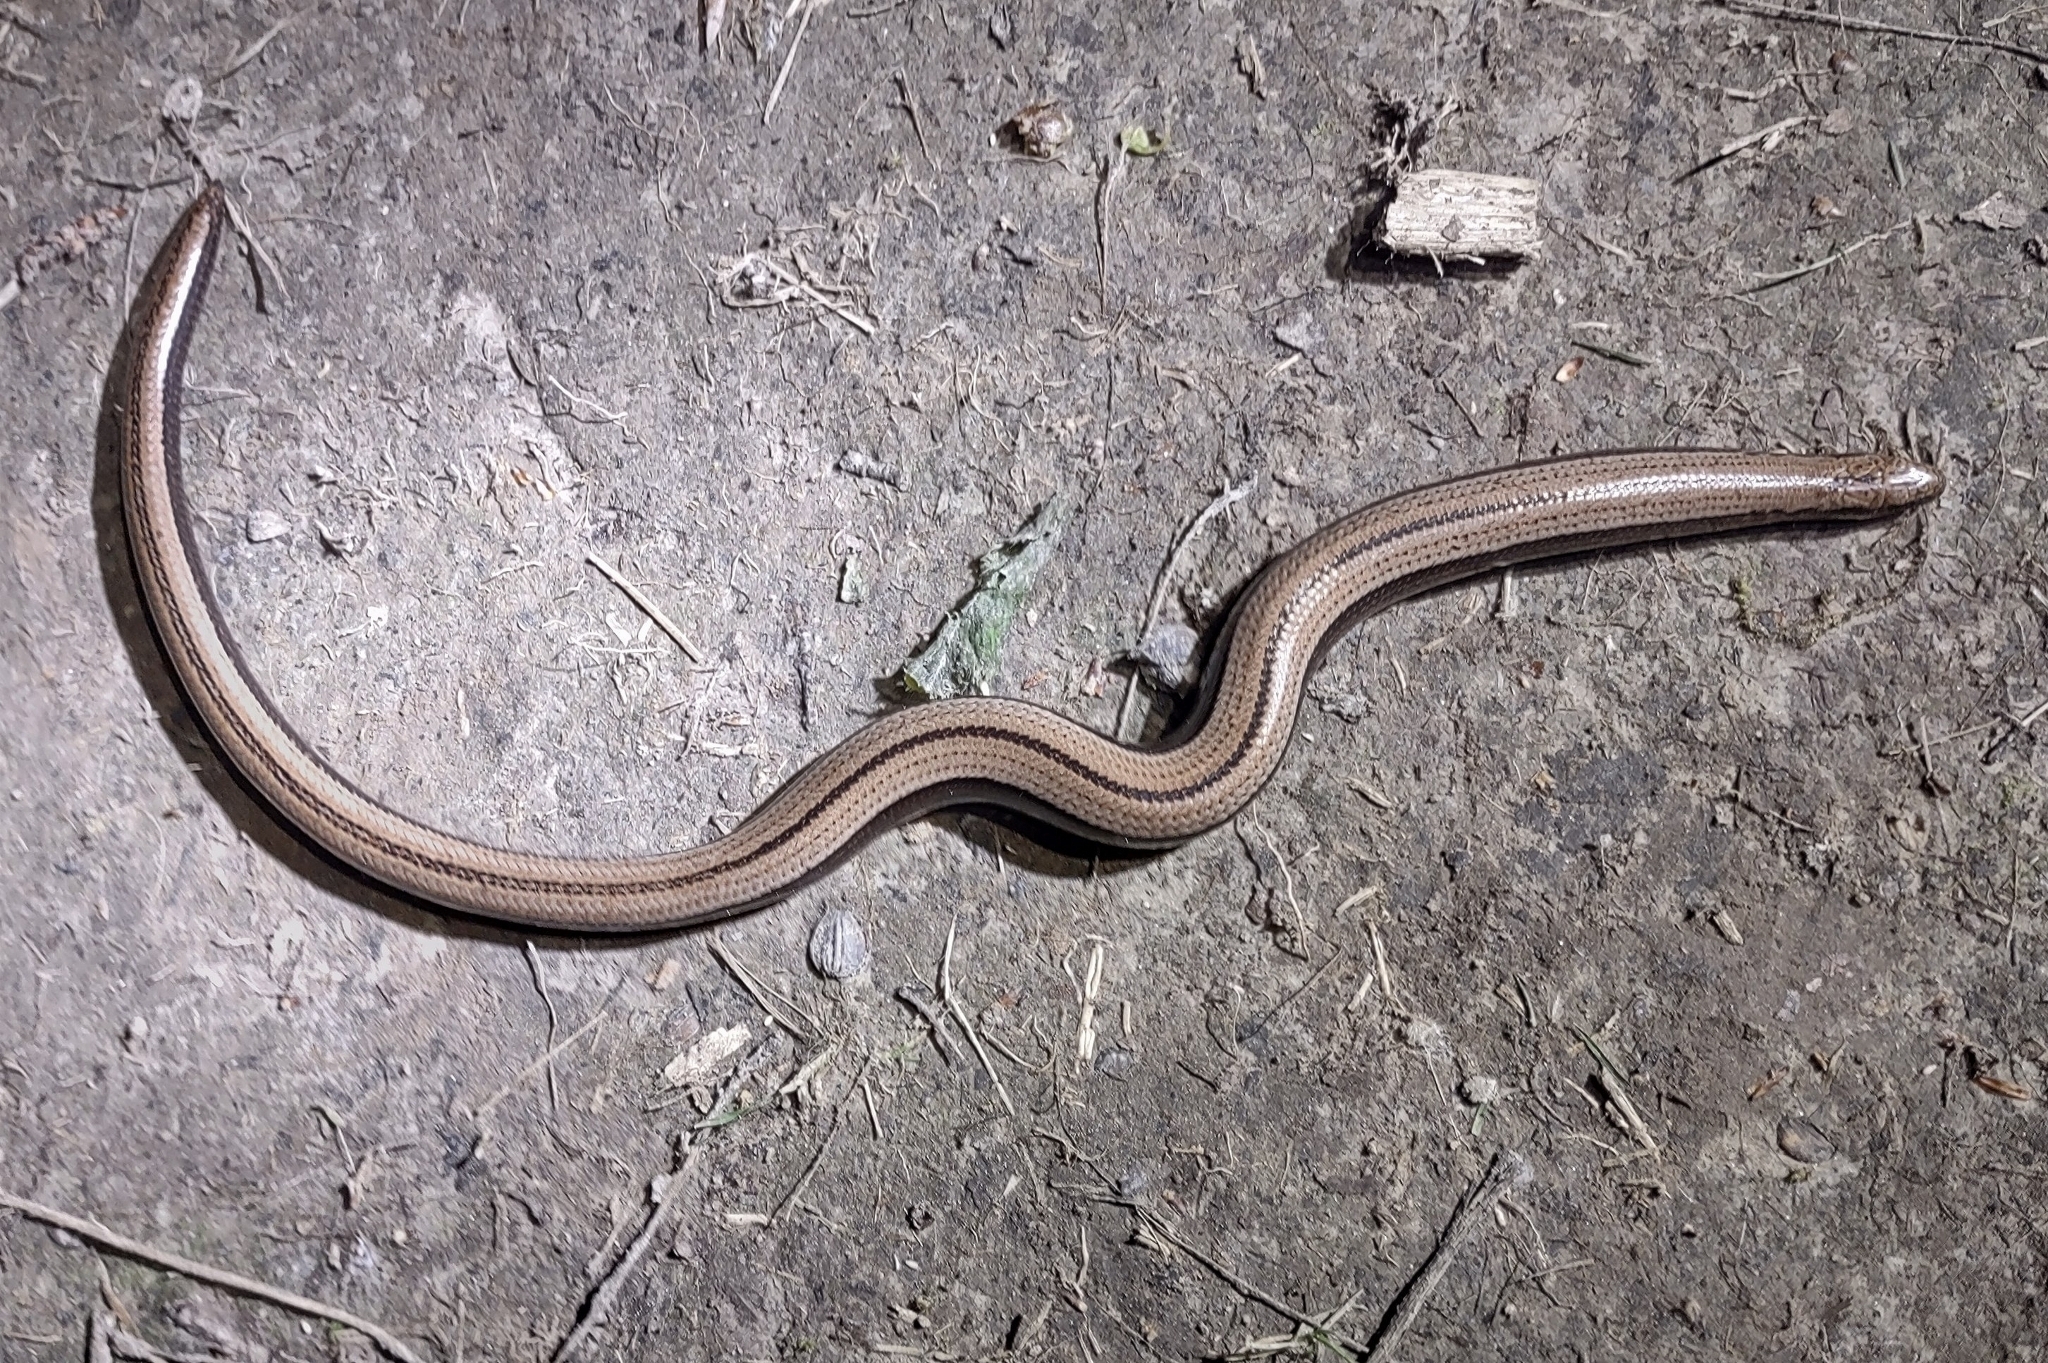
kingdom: Animalia
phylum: Chordata
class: Squamata
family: Anguidae
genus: Anguis
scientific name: Anguis fragilis
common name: Slow worm
